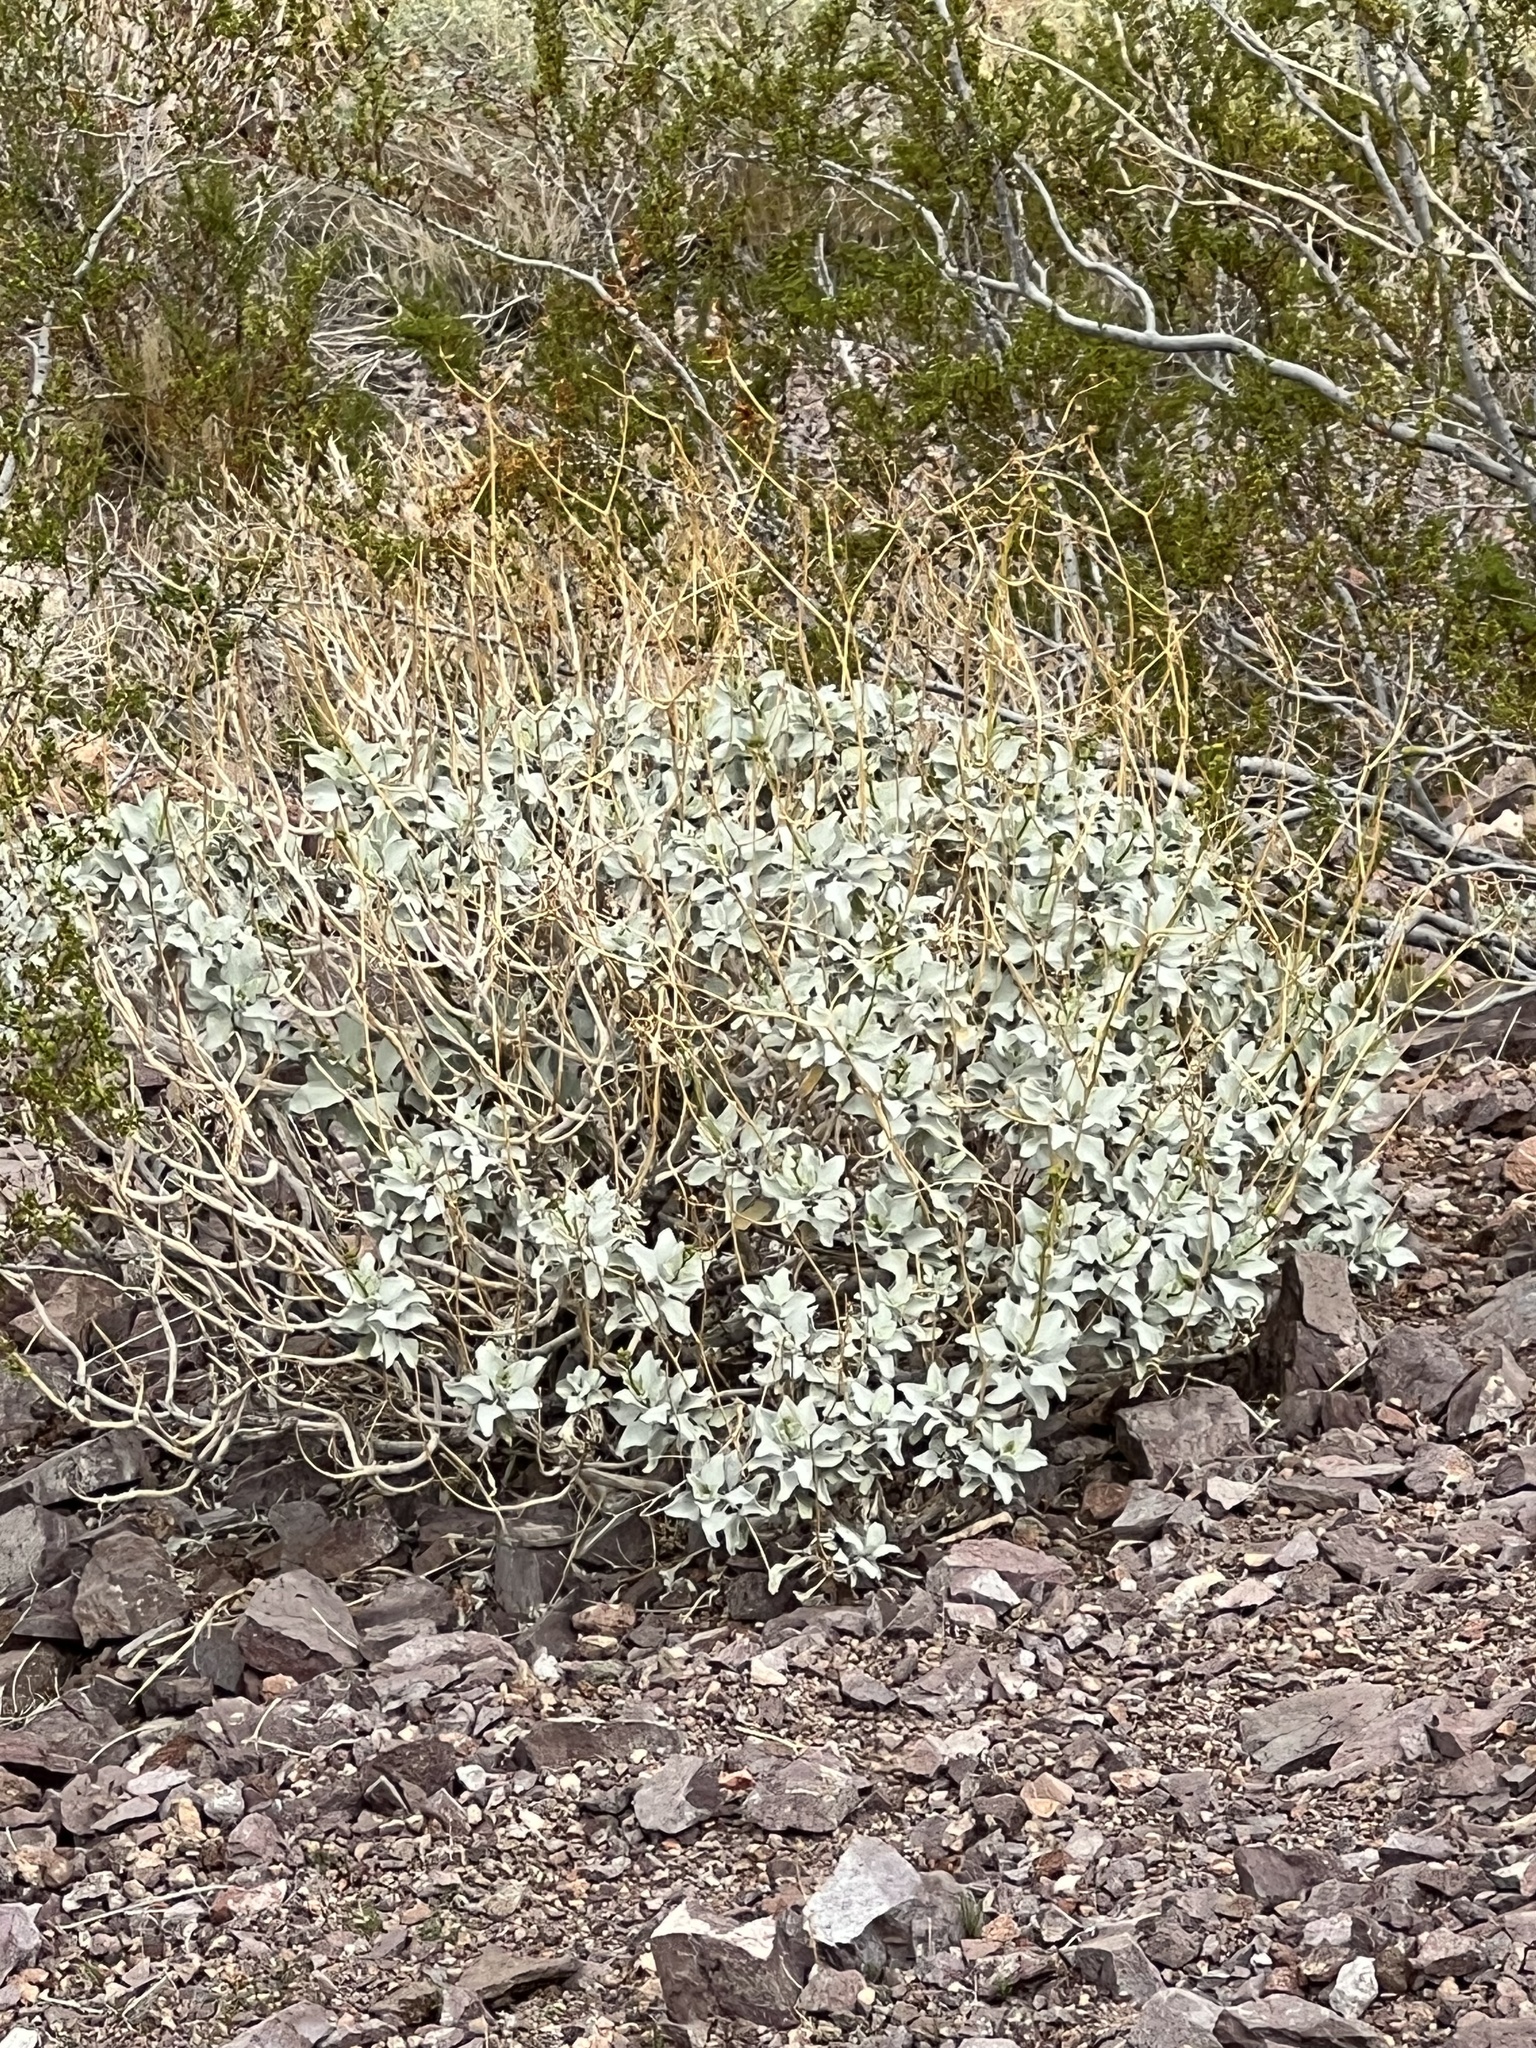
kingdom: Plantae
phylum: Tracheophyta
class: Magnoliopsida
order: Asterales
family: Asteraceae
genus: Encelia
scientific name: Encelia farinosa
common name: Brittlebush
